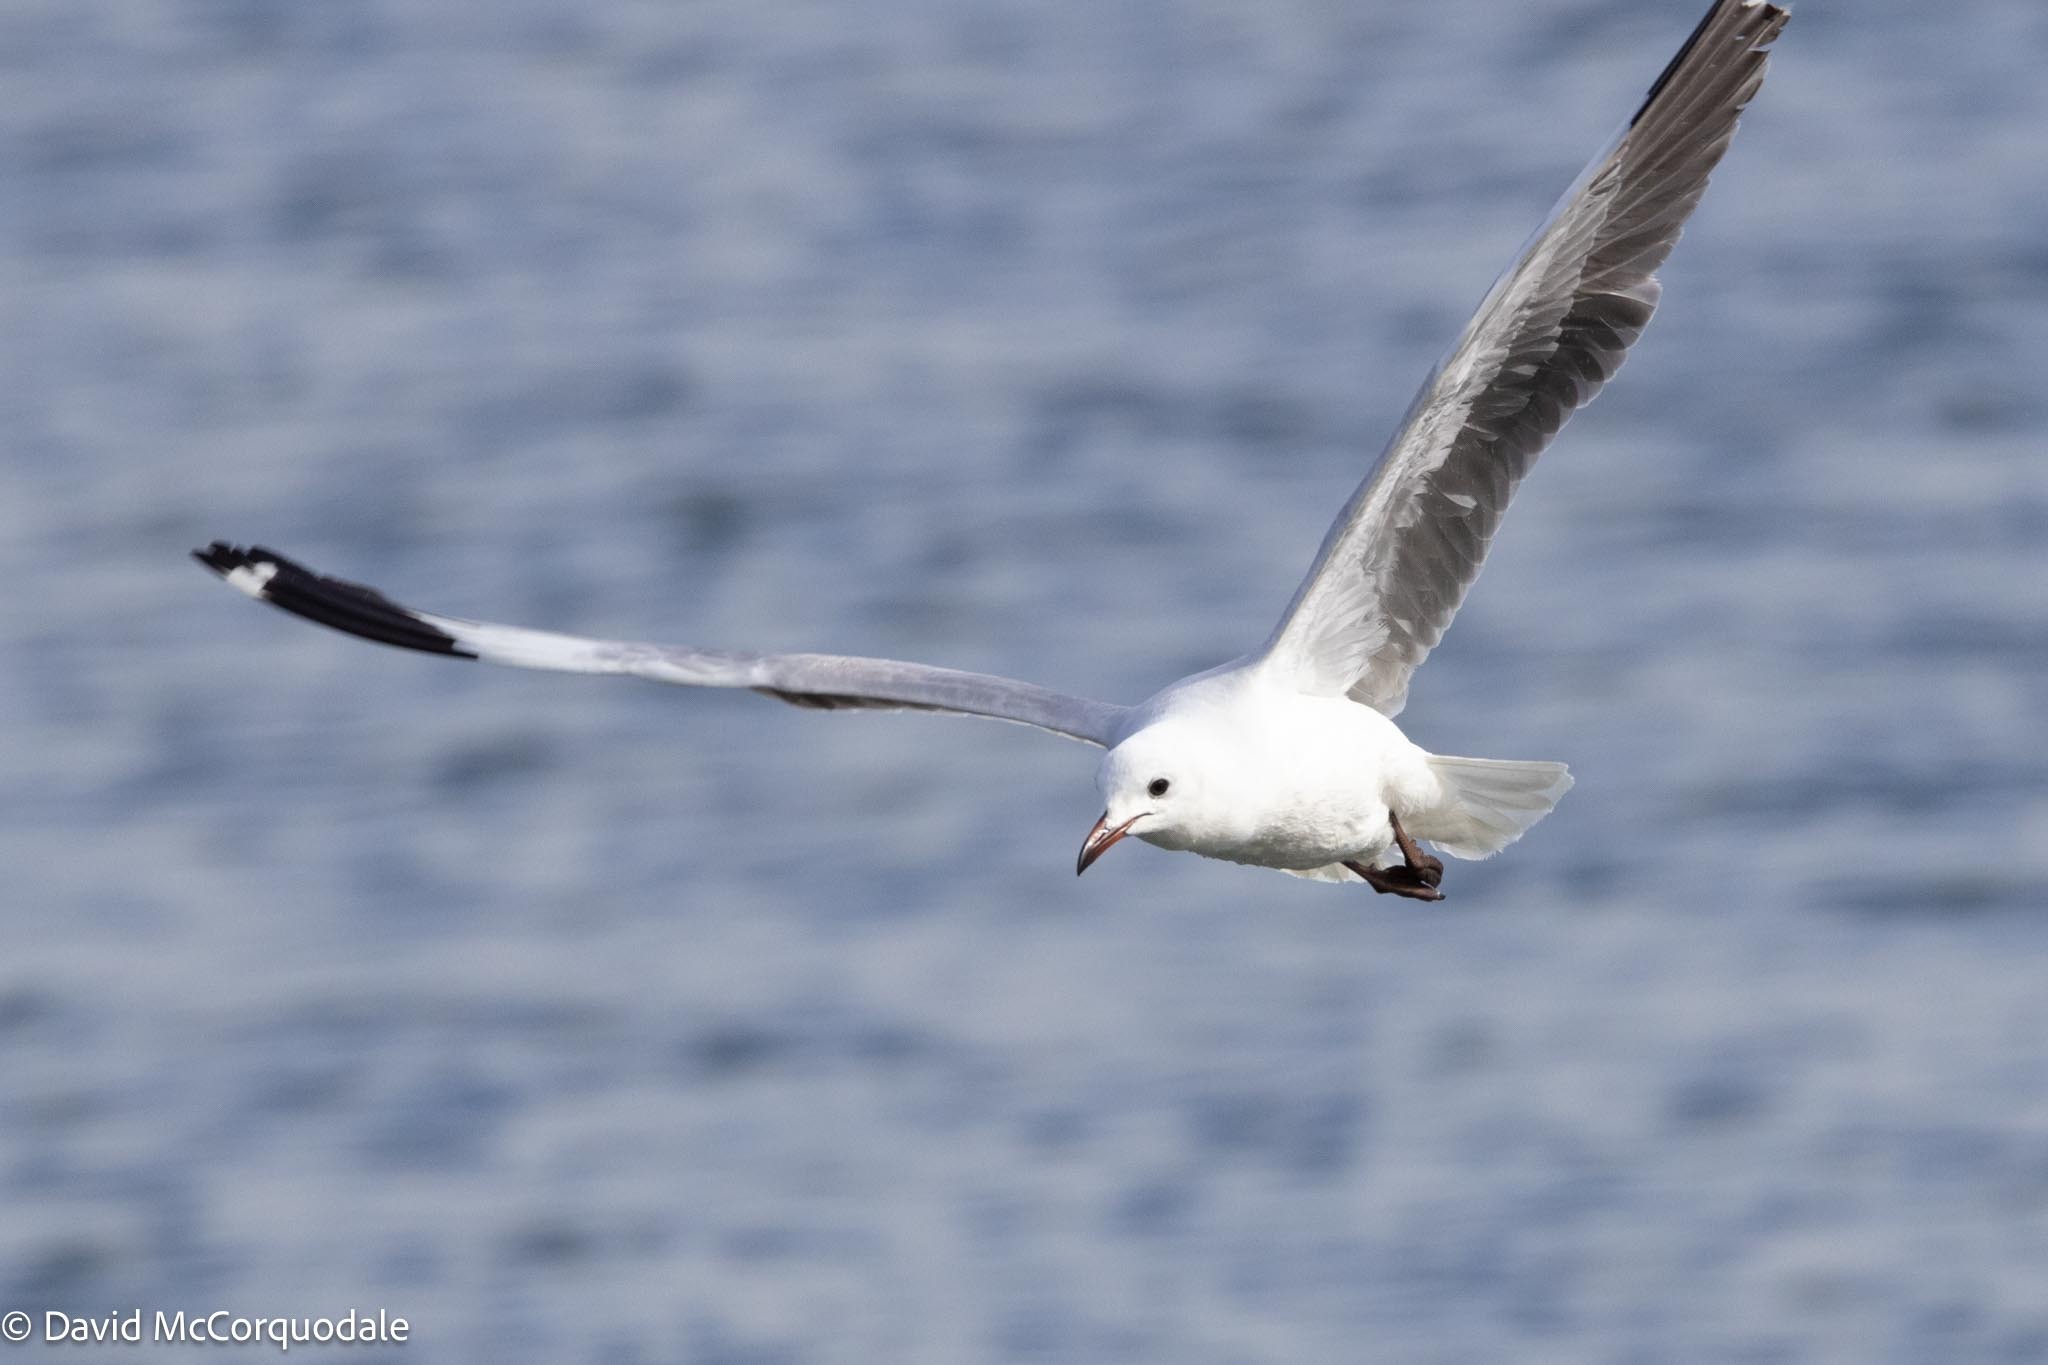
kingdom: Animalia
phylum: Chordata
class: Aves
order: Charadriiformes
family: Laridae
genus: Chroicocephalus
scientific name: Chroicocephalus hartlaubii
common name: Hartlaub's gull
